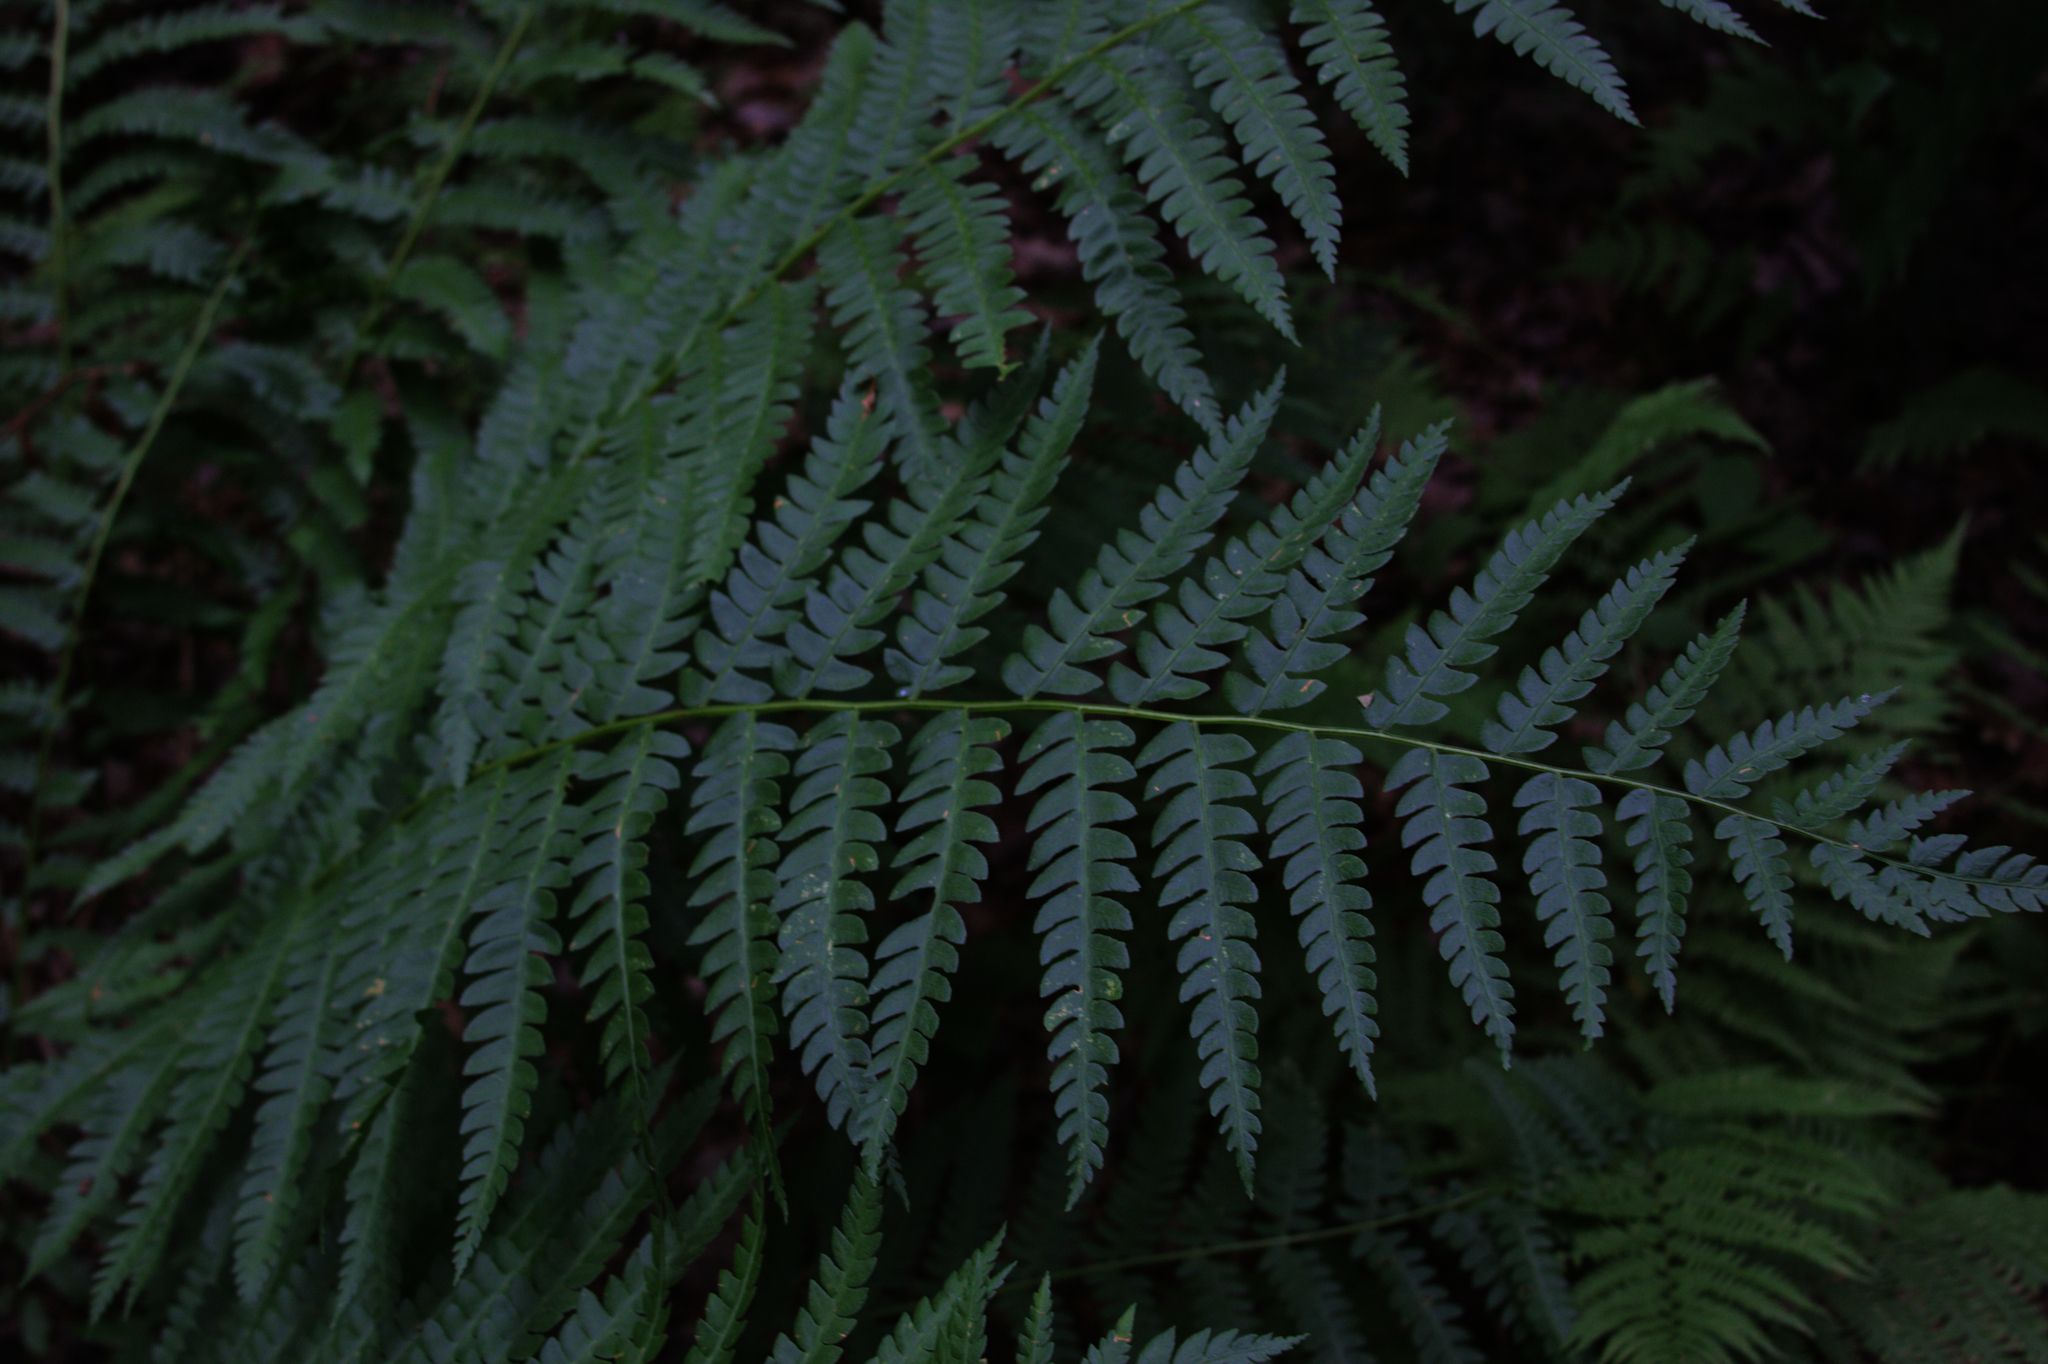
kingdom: Plantae
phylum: Tracheophyta
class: Polypodiopsida
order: Osmundales
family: Osmundaceae
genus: Osmundastrum
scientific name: Osmundastrum cinnamomeum
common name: Cinnamon fern
